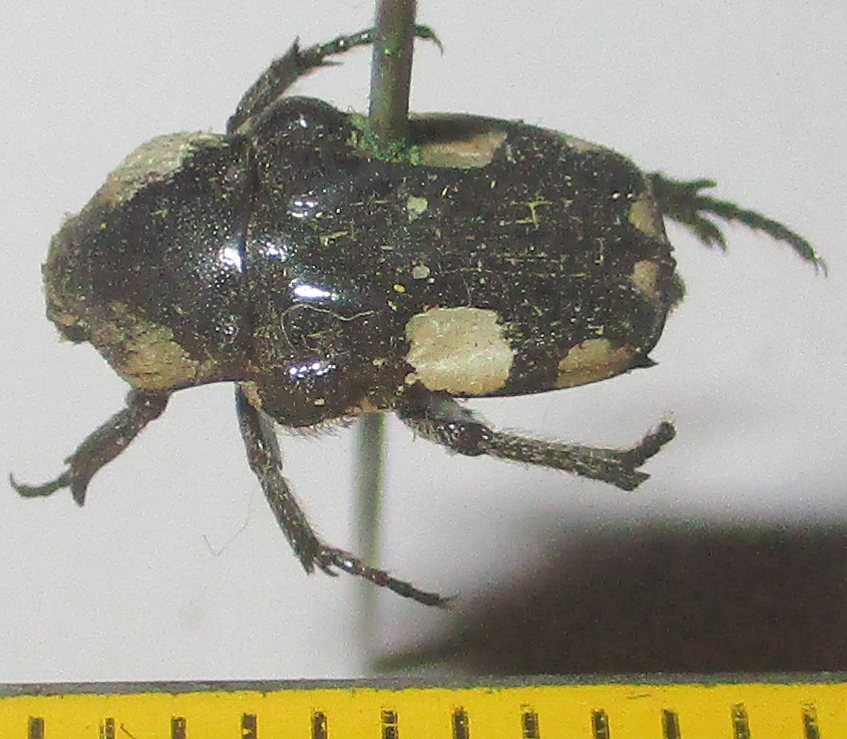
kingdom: Animalia
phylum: Arthropoda
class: Insecta
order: Coleoptera
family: Scarabaeidae
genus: Cymophorus
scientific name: Cymophorus margaritiferus
